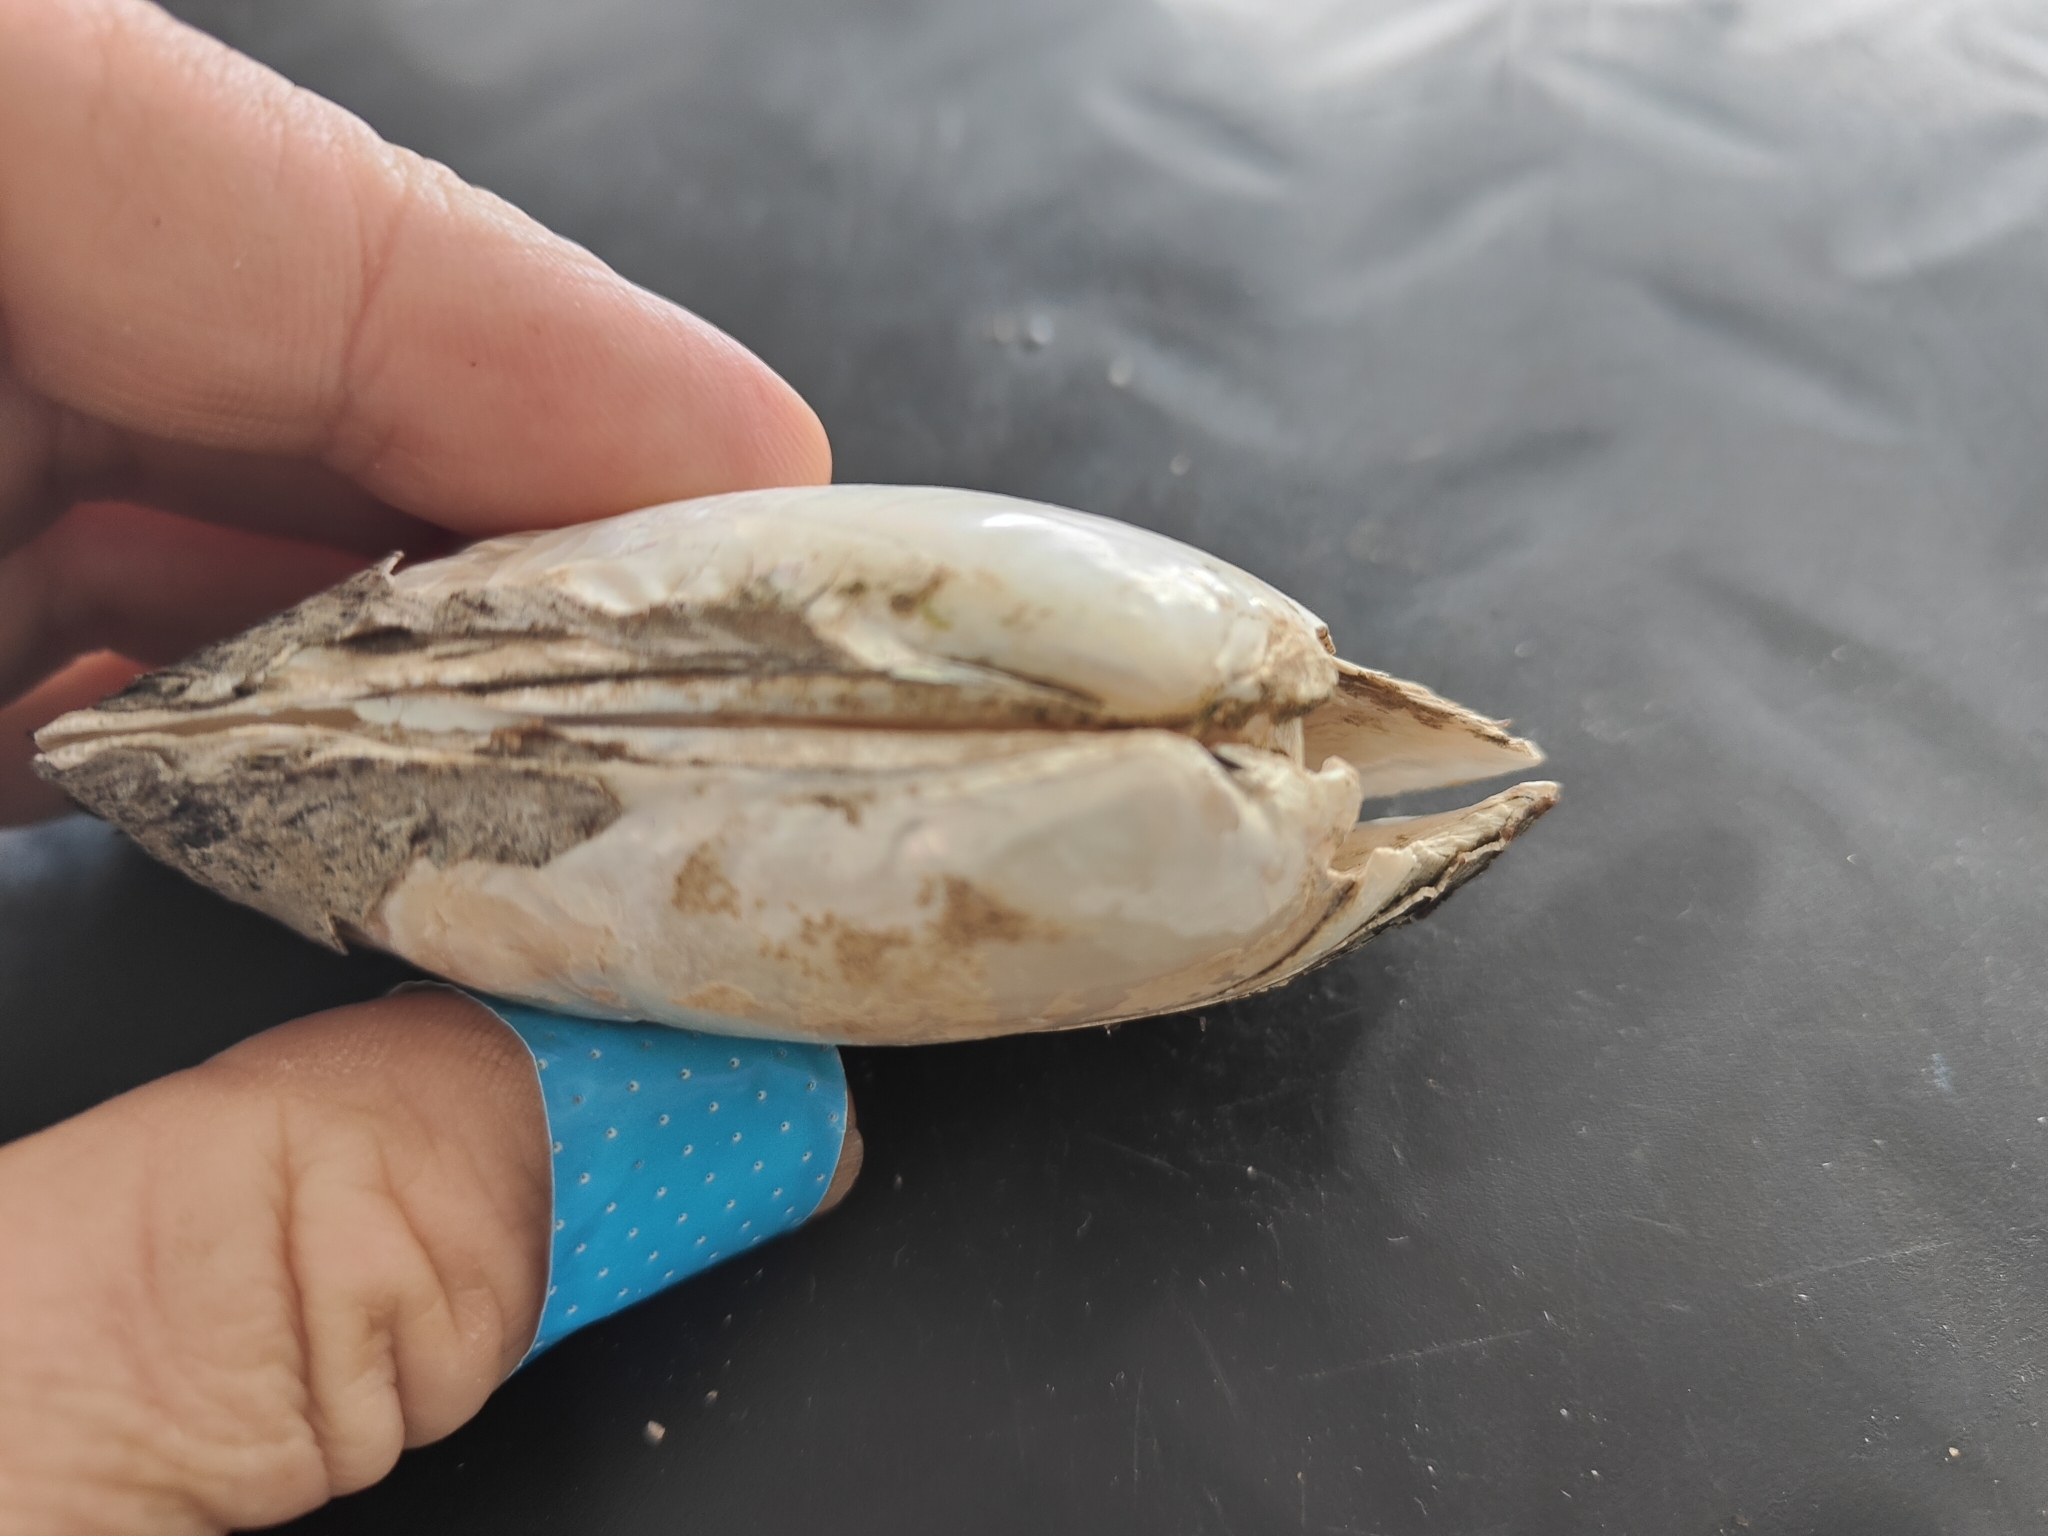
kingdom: Animalia
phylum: Mollusca
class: Bivalvia
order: Unionida
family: Unionidae
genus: Lampsilis
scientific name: Lampsilis siliquoidea
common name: Fatmucket
